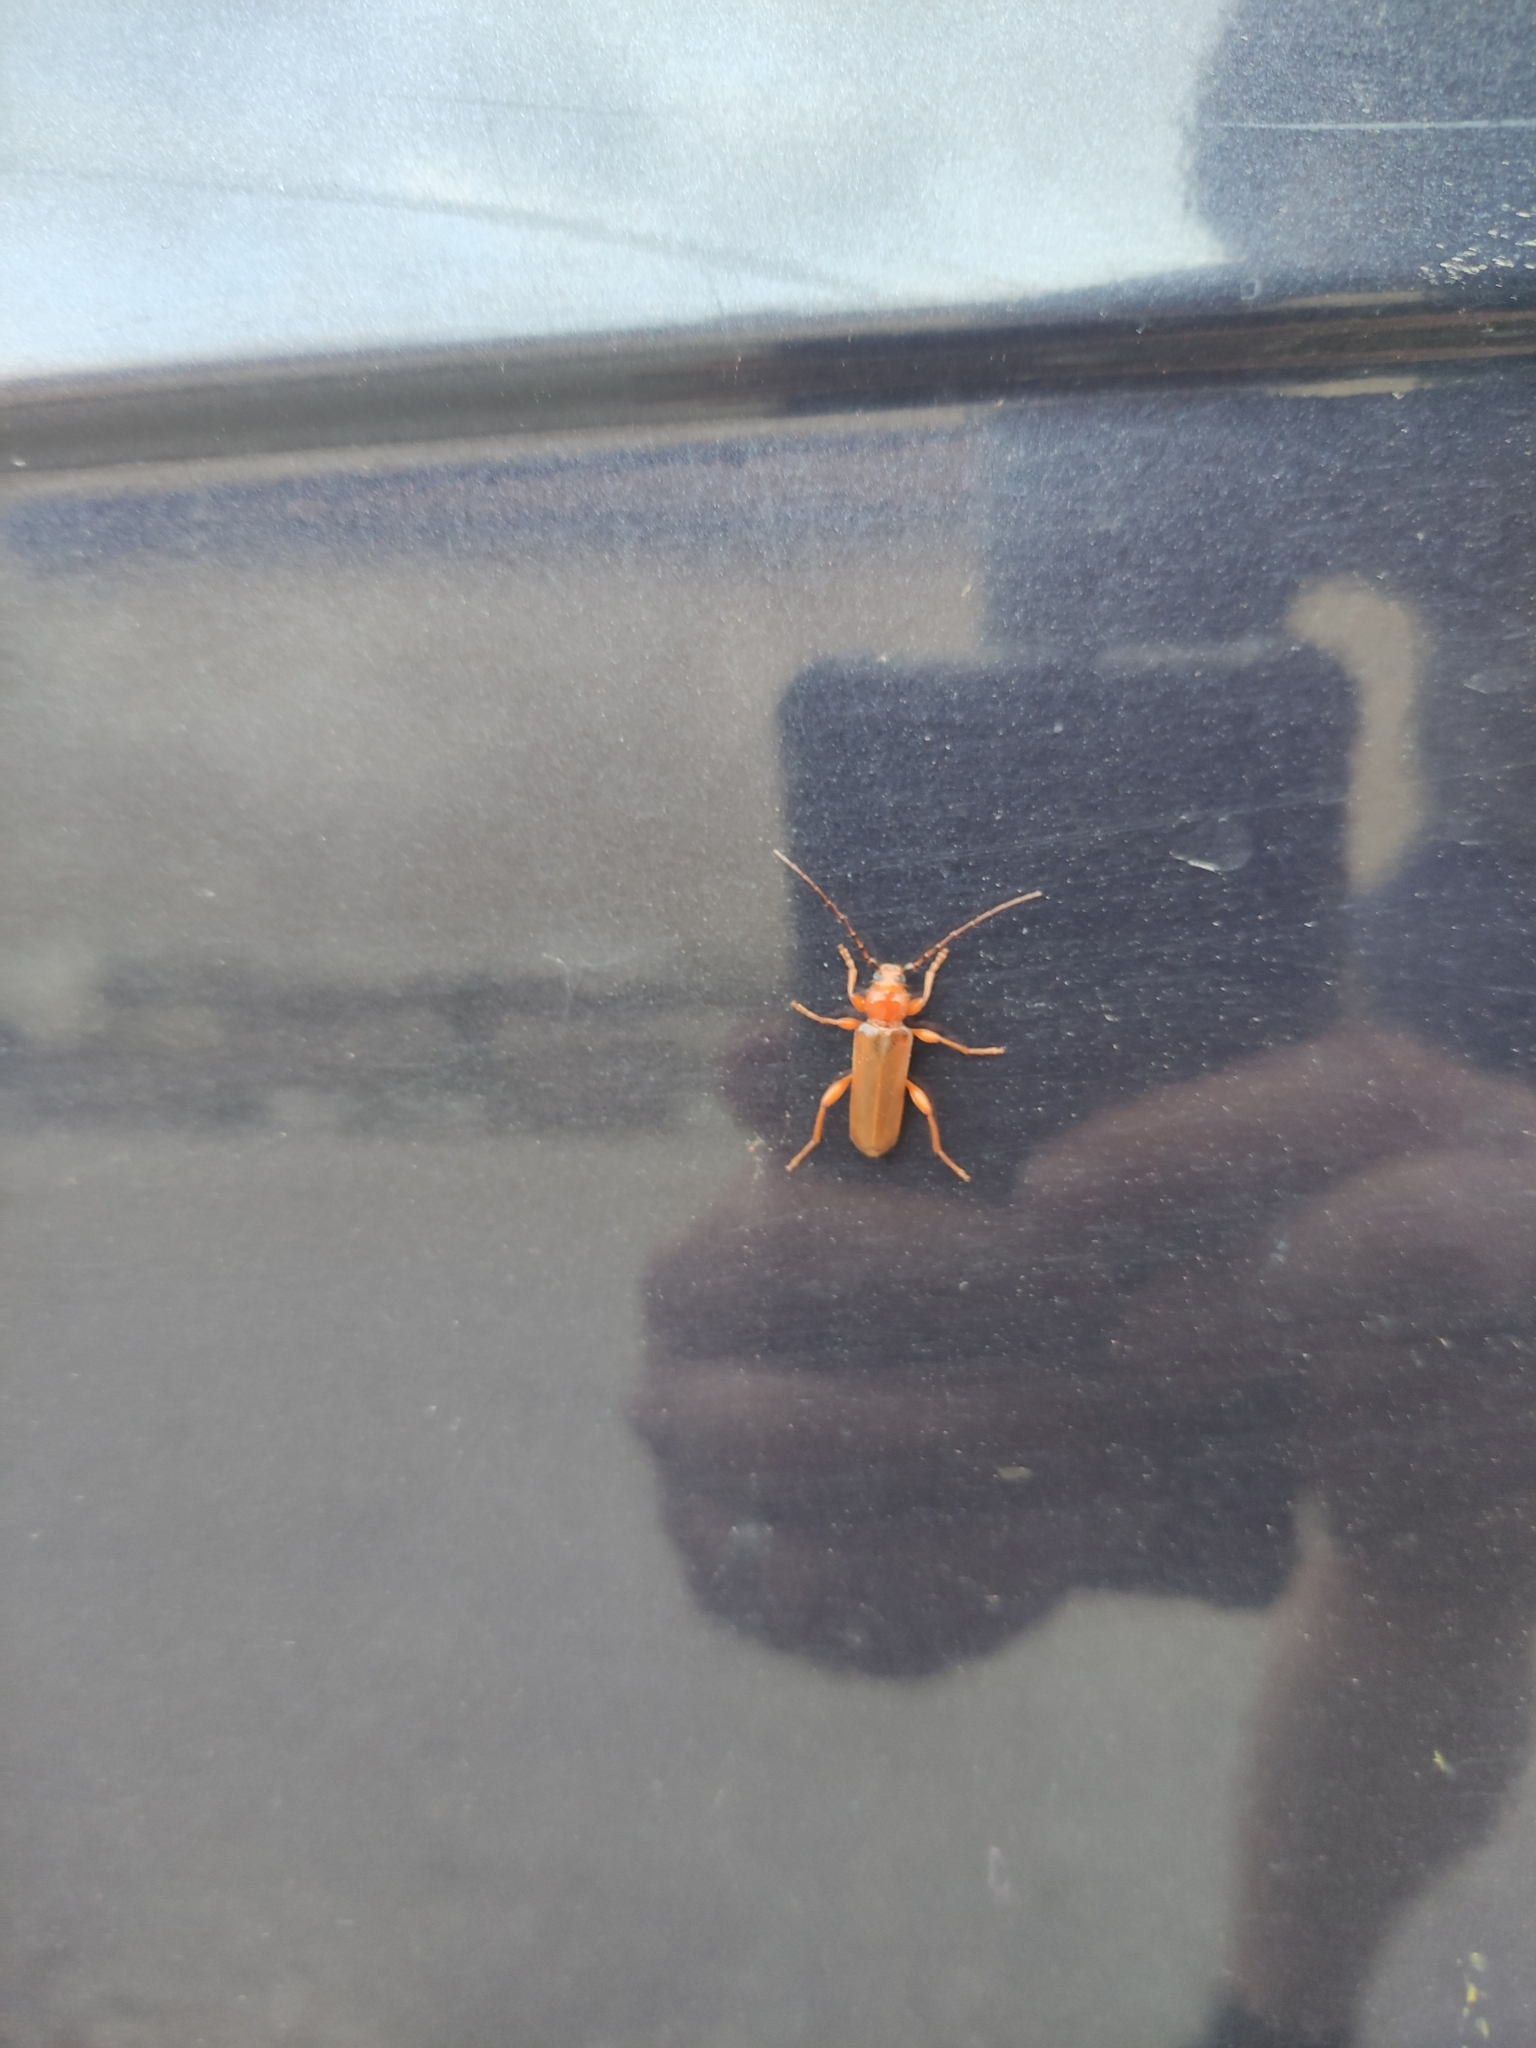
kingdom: Animalia
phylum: Arthropoda
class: Insecta
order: Coleoptera
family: Cerambycidae
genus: Phymatodes
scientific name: Phymatodes testaceus
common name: Long-horned beetle
